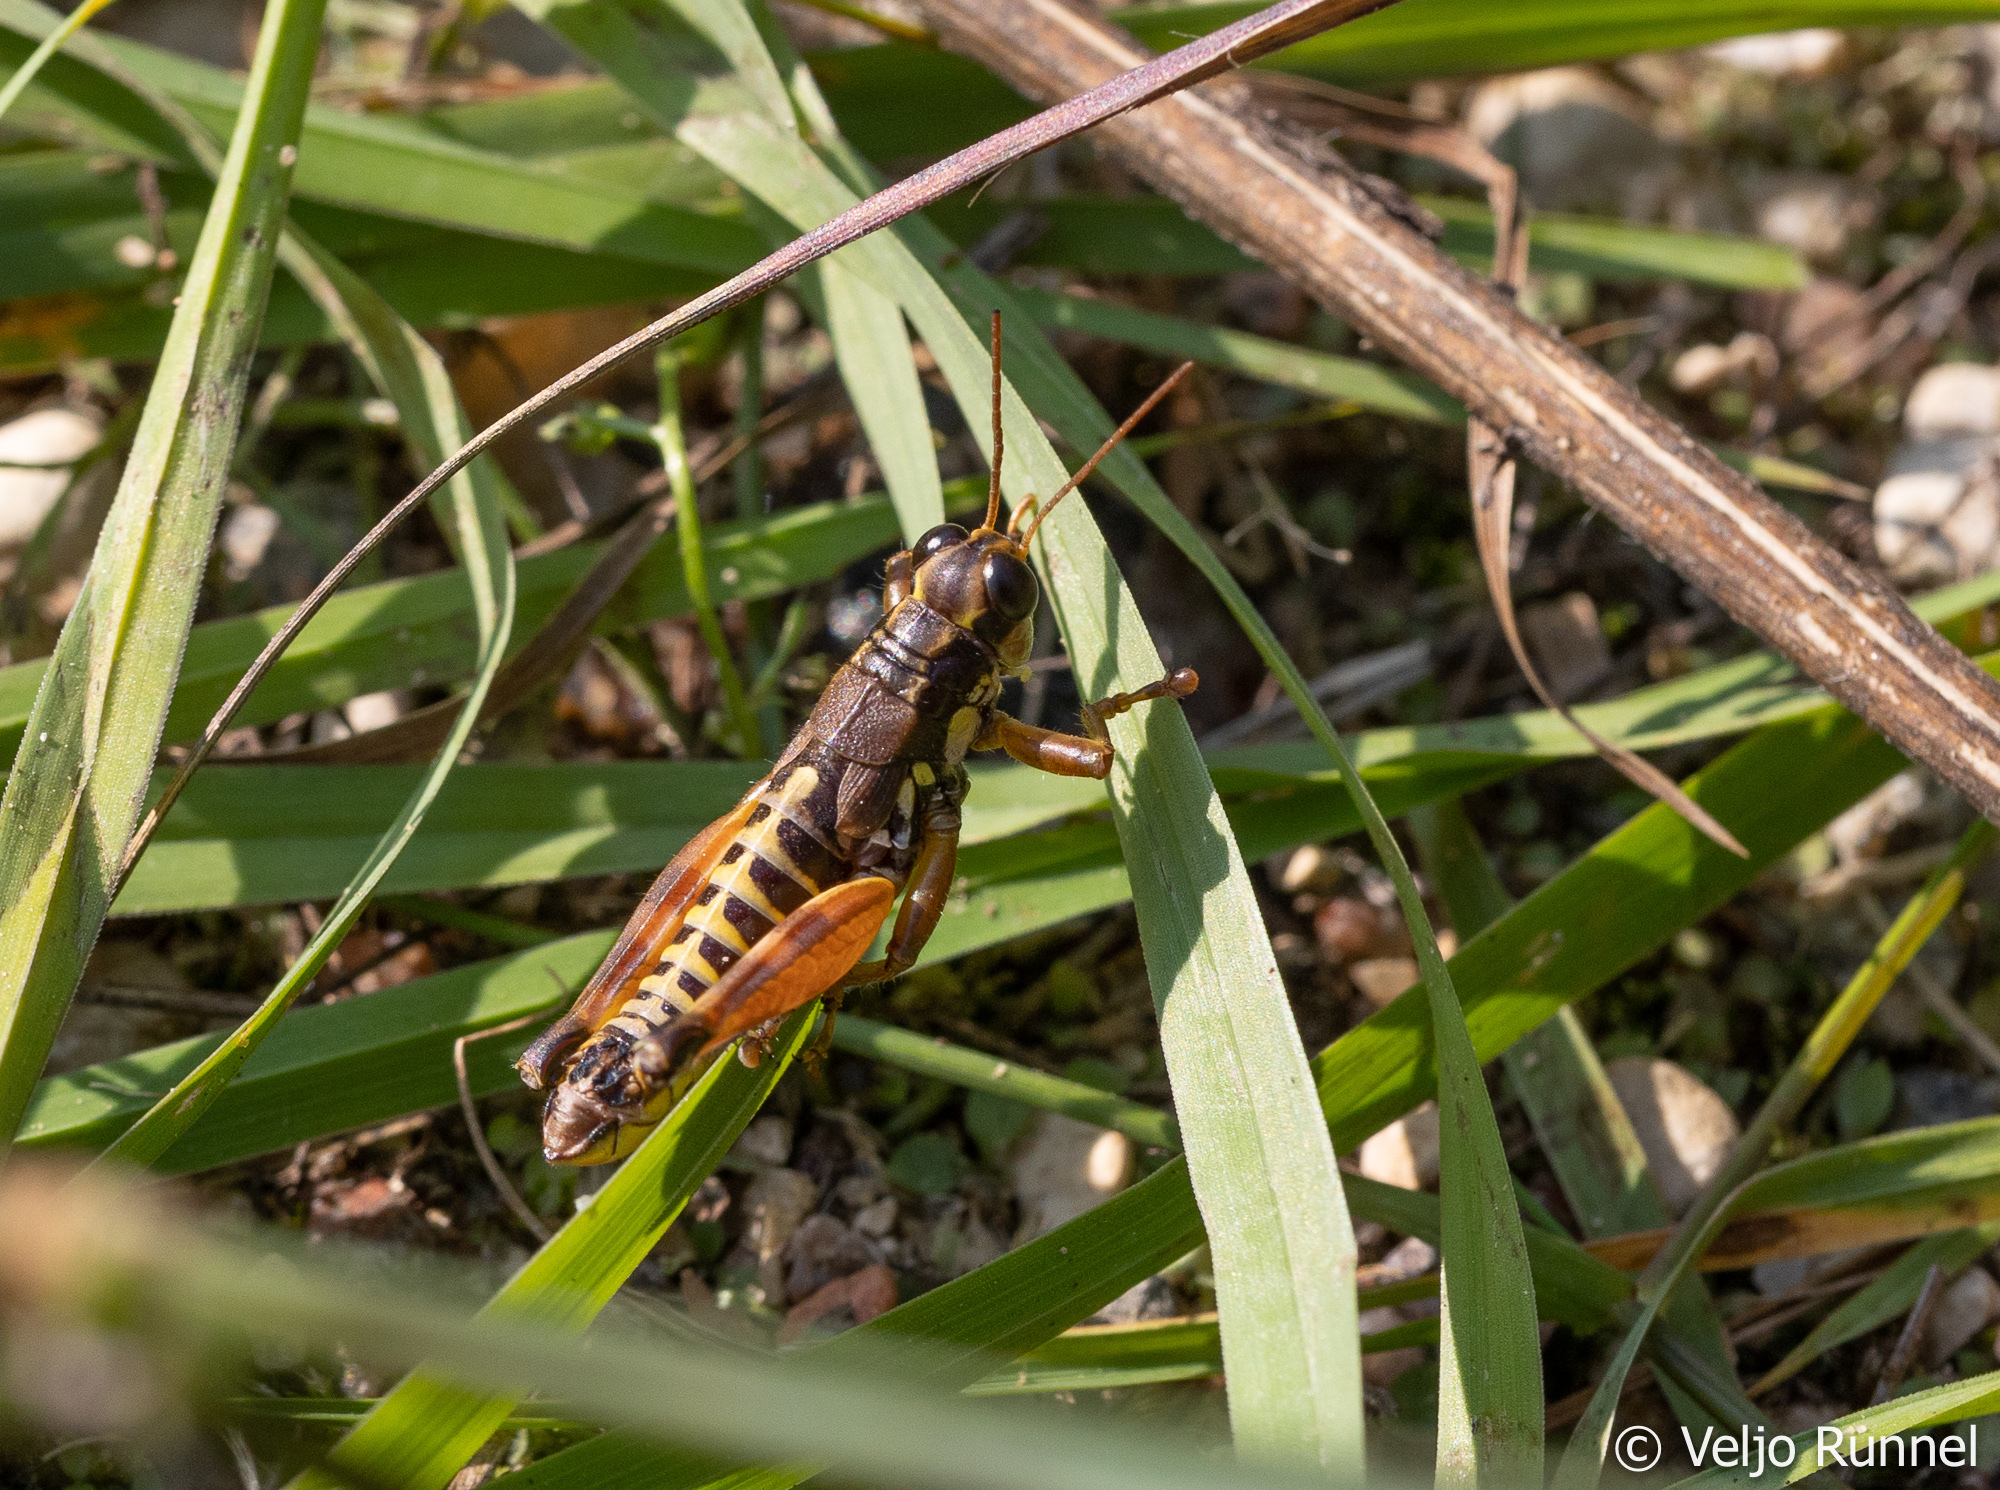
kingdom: Animalia
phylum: Arthropoda
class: Insecta
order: Orthoptera
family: Acrididae
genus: Podisma
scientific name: Podisma pedestris
